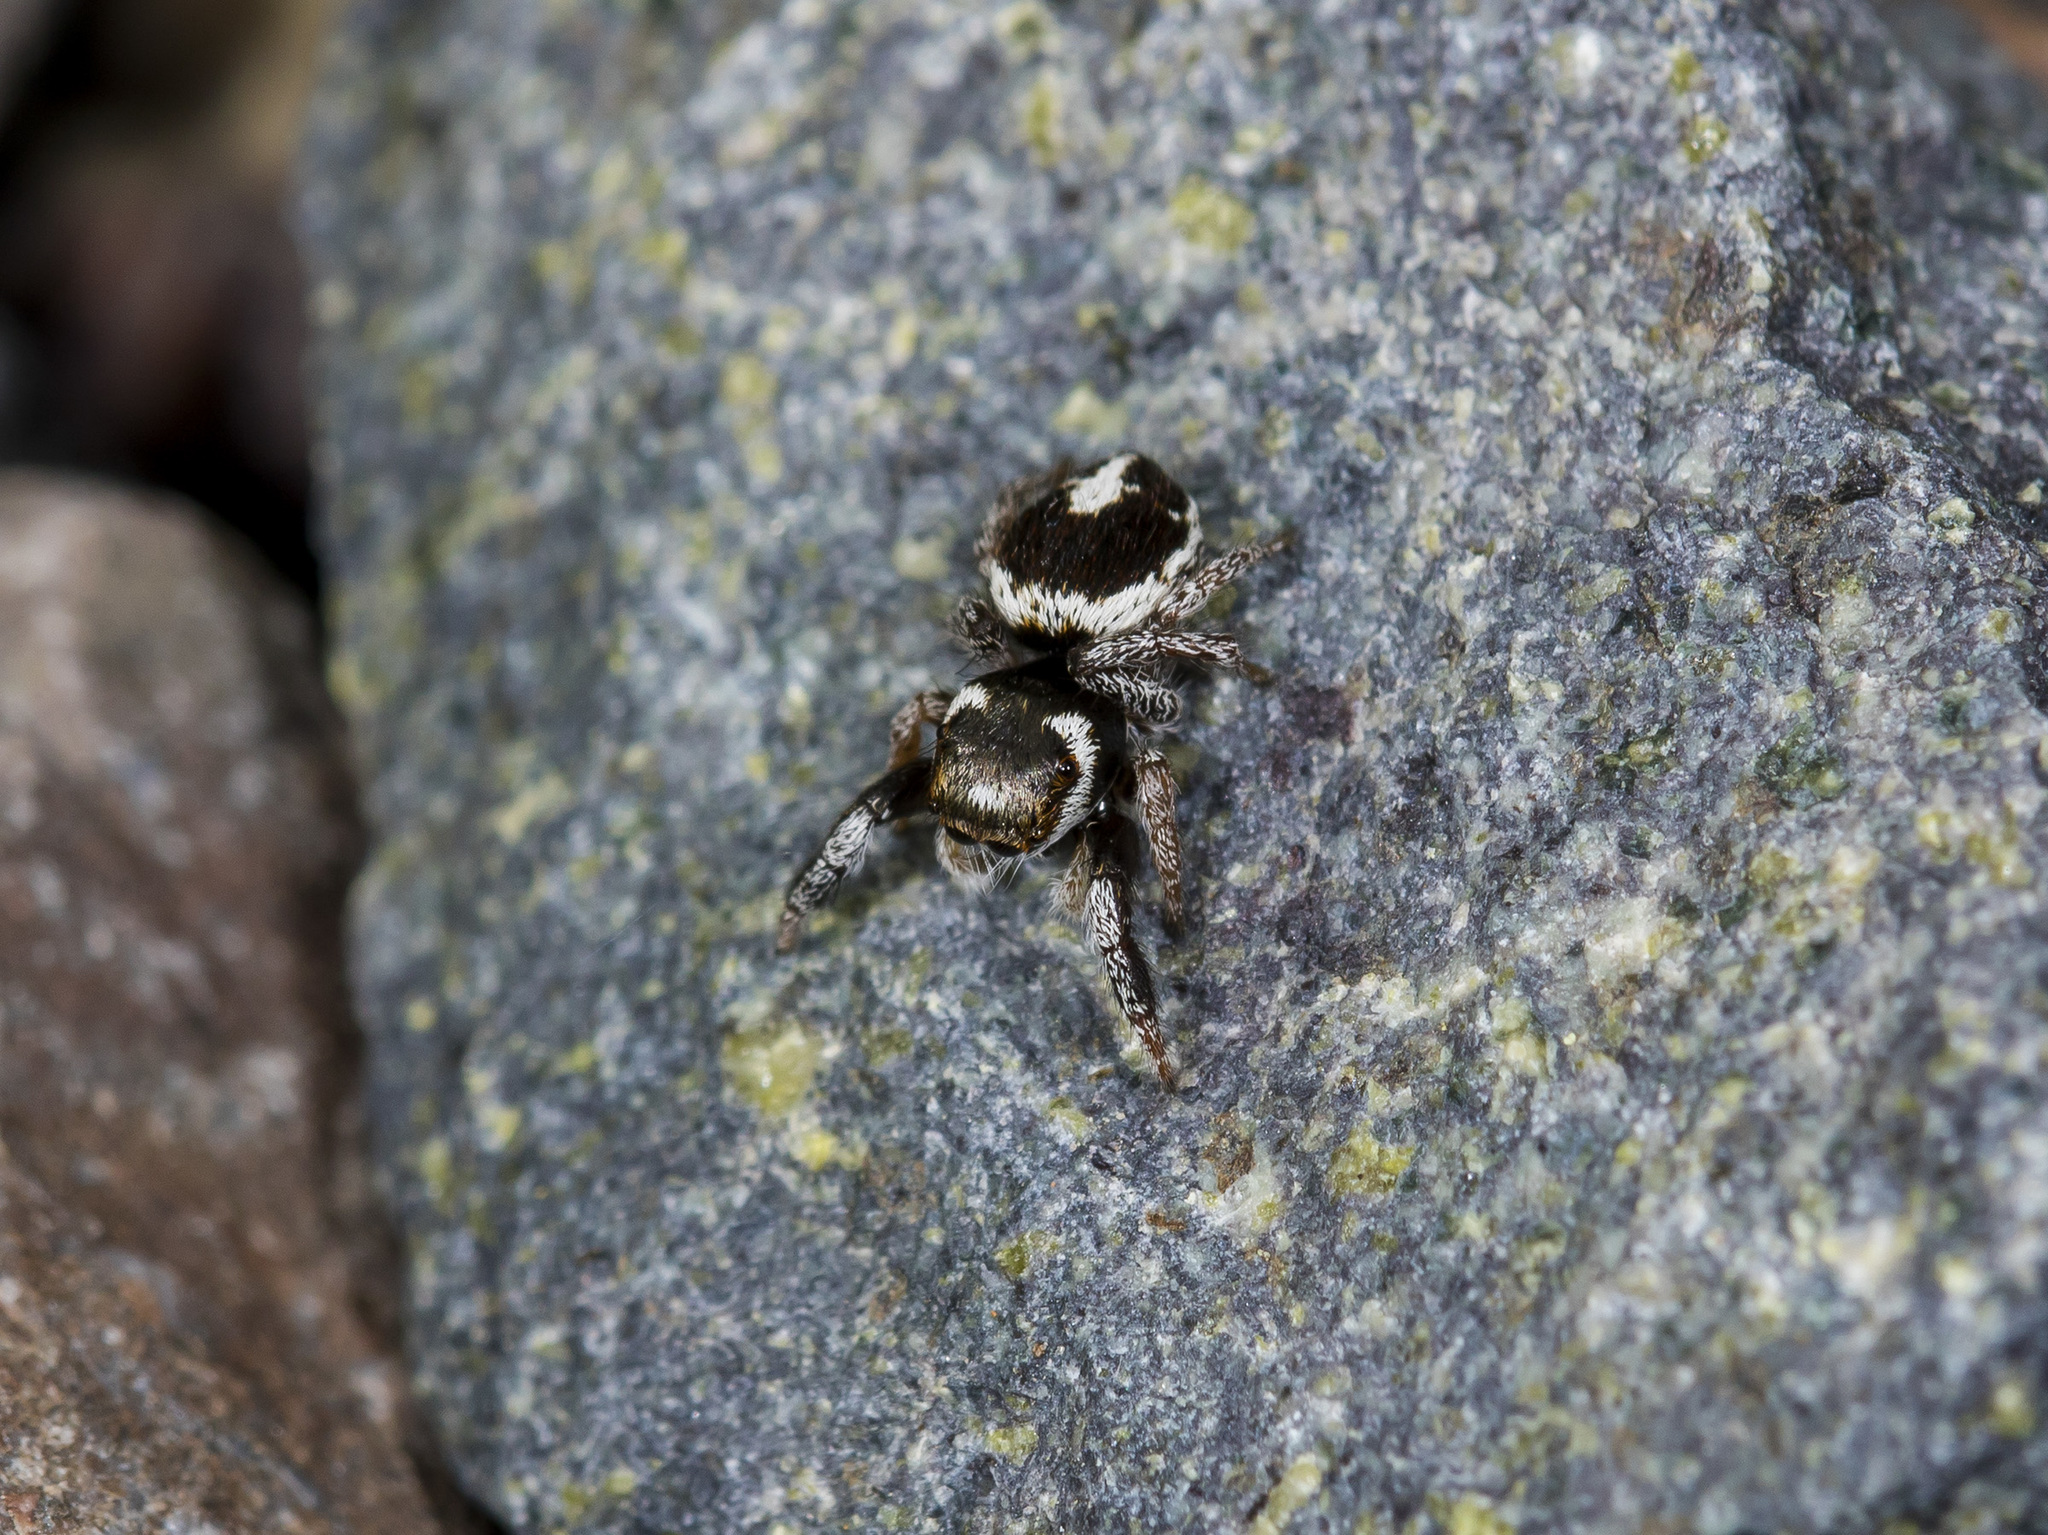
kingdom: Animalia
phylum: Arthropoda
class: Arachnida
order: Araneae
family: Salticidae
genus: Pellenes
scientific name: Pellenes geniculatus
